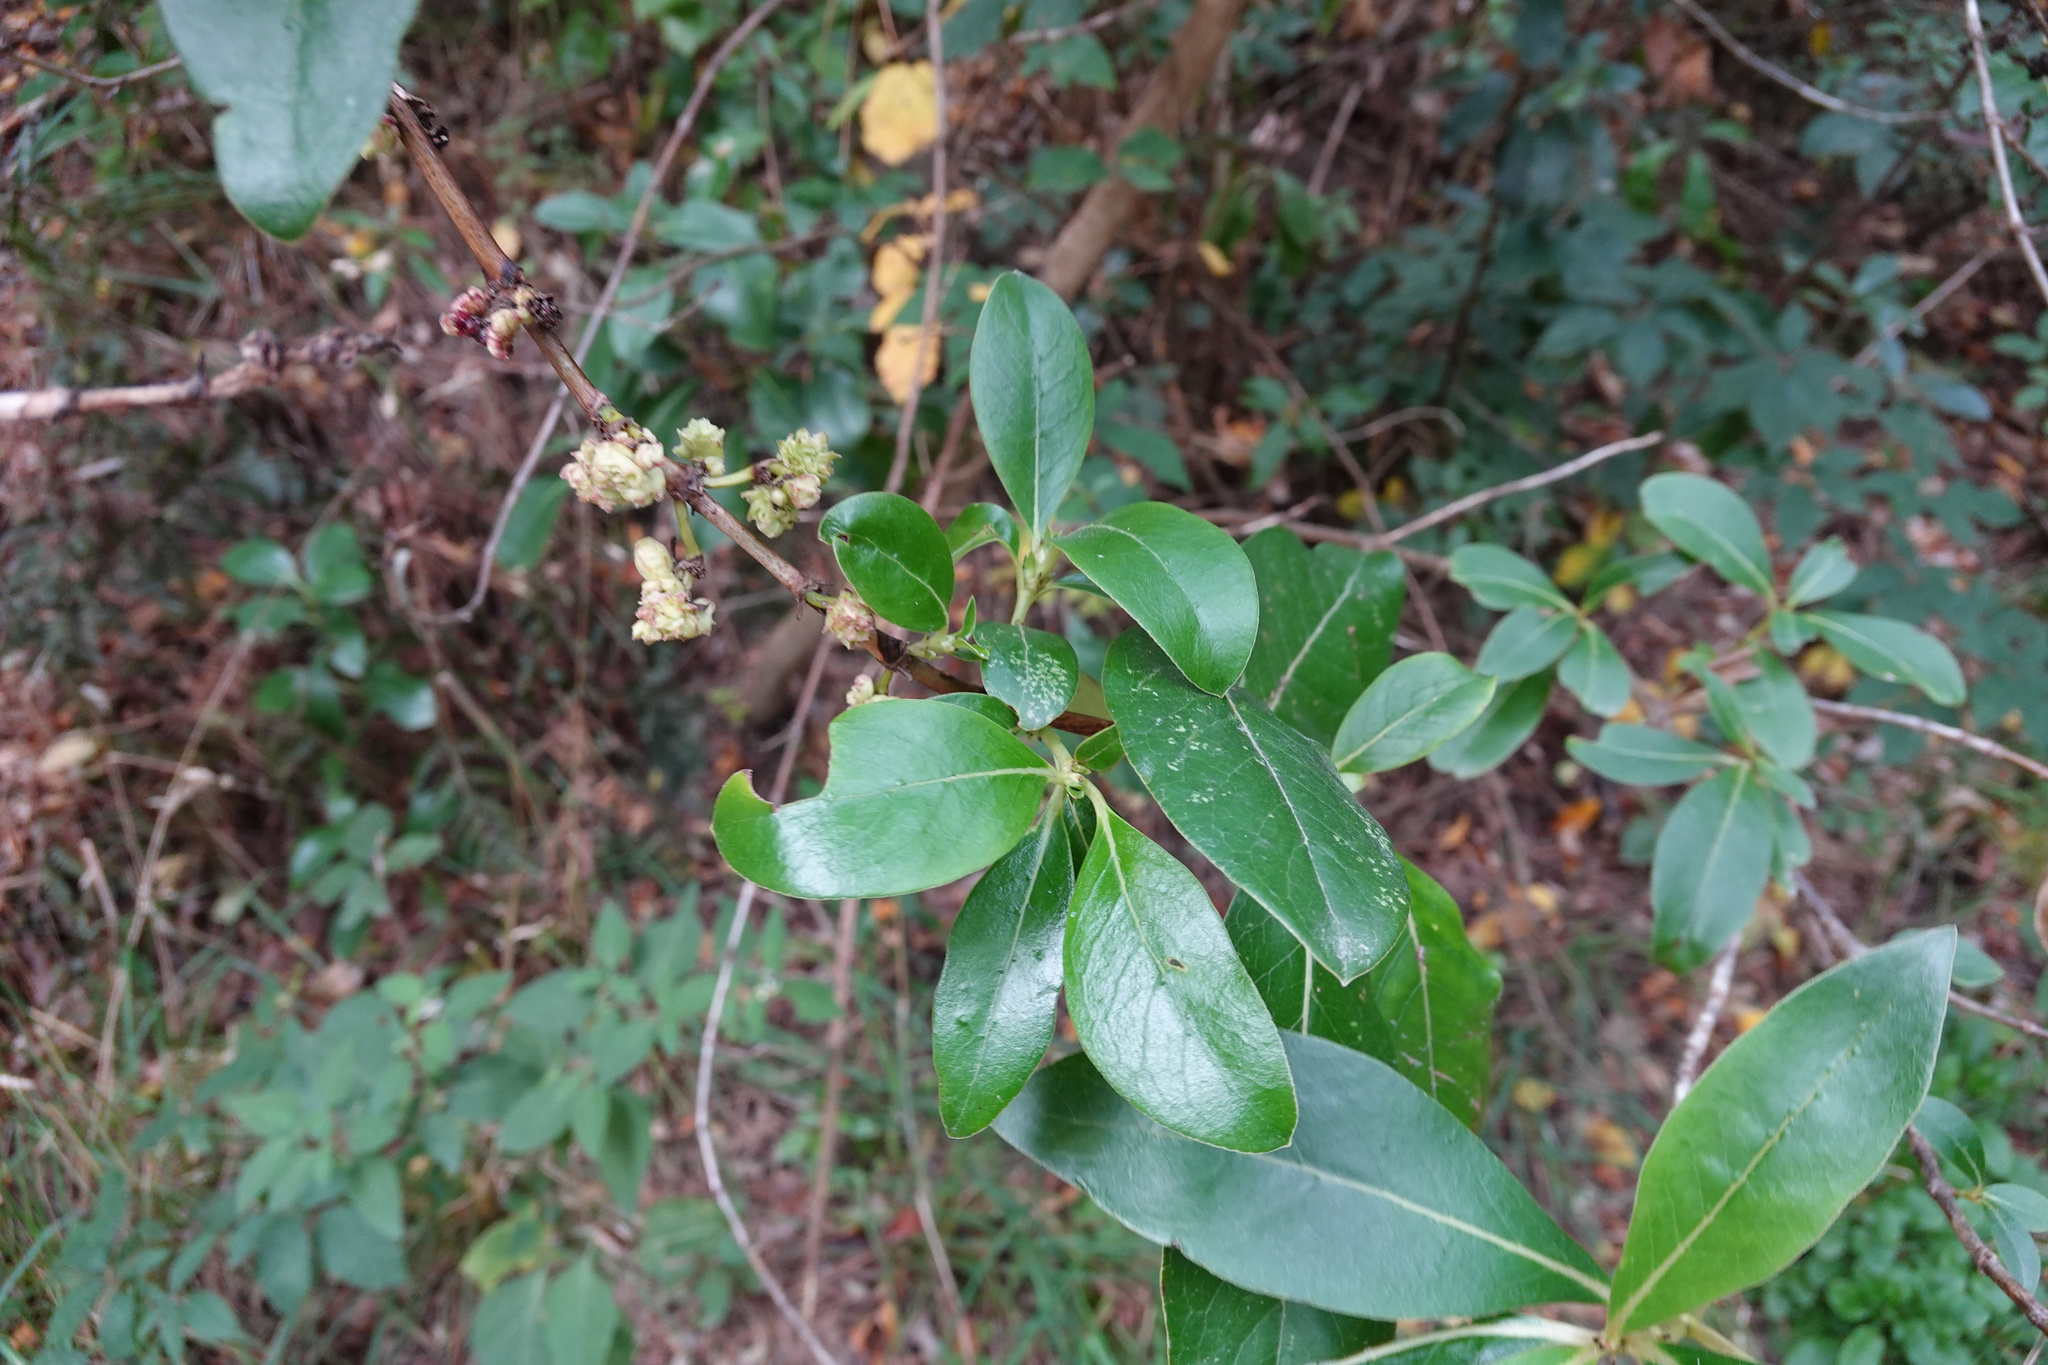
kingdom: Plantae
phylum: Tracheophyta
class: Magnoliopsida
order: Gentianales
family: Rubiaceae
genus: Coprosma
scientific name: Coprosma robusta
